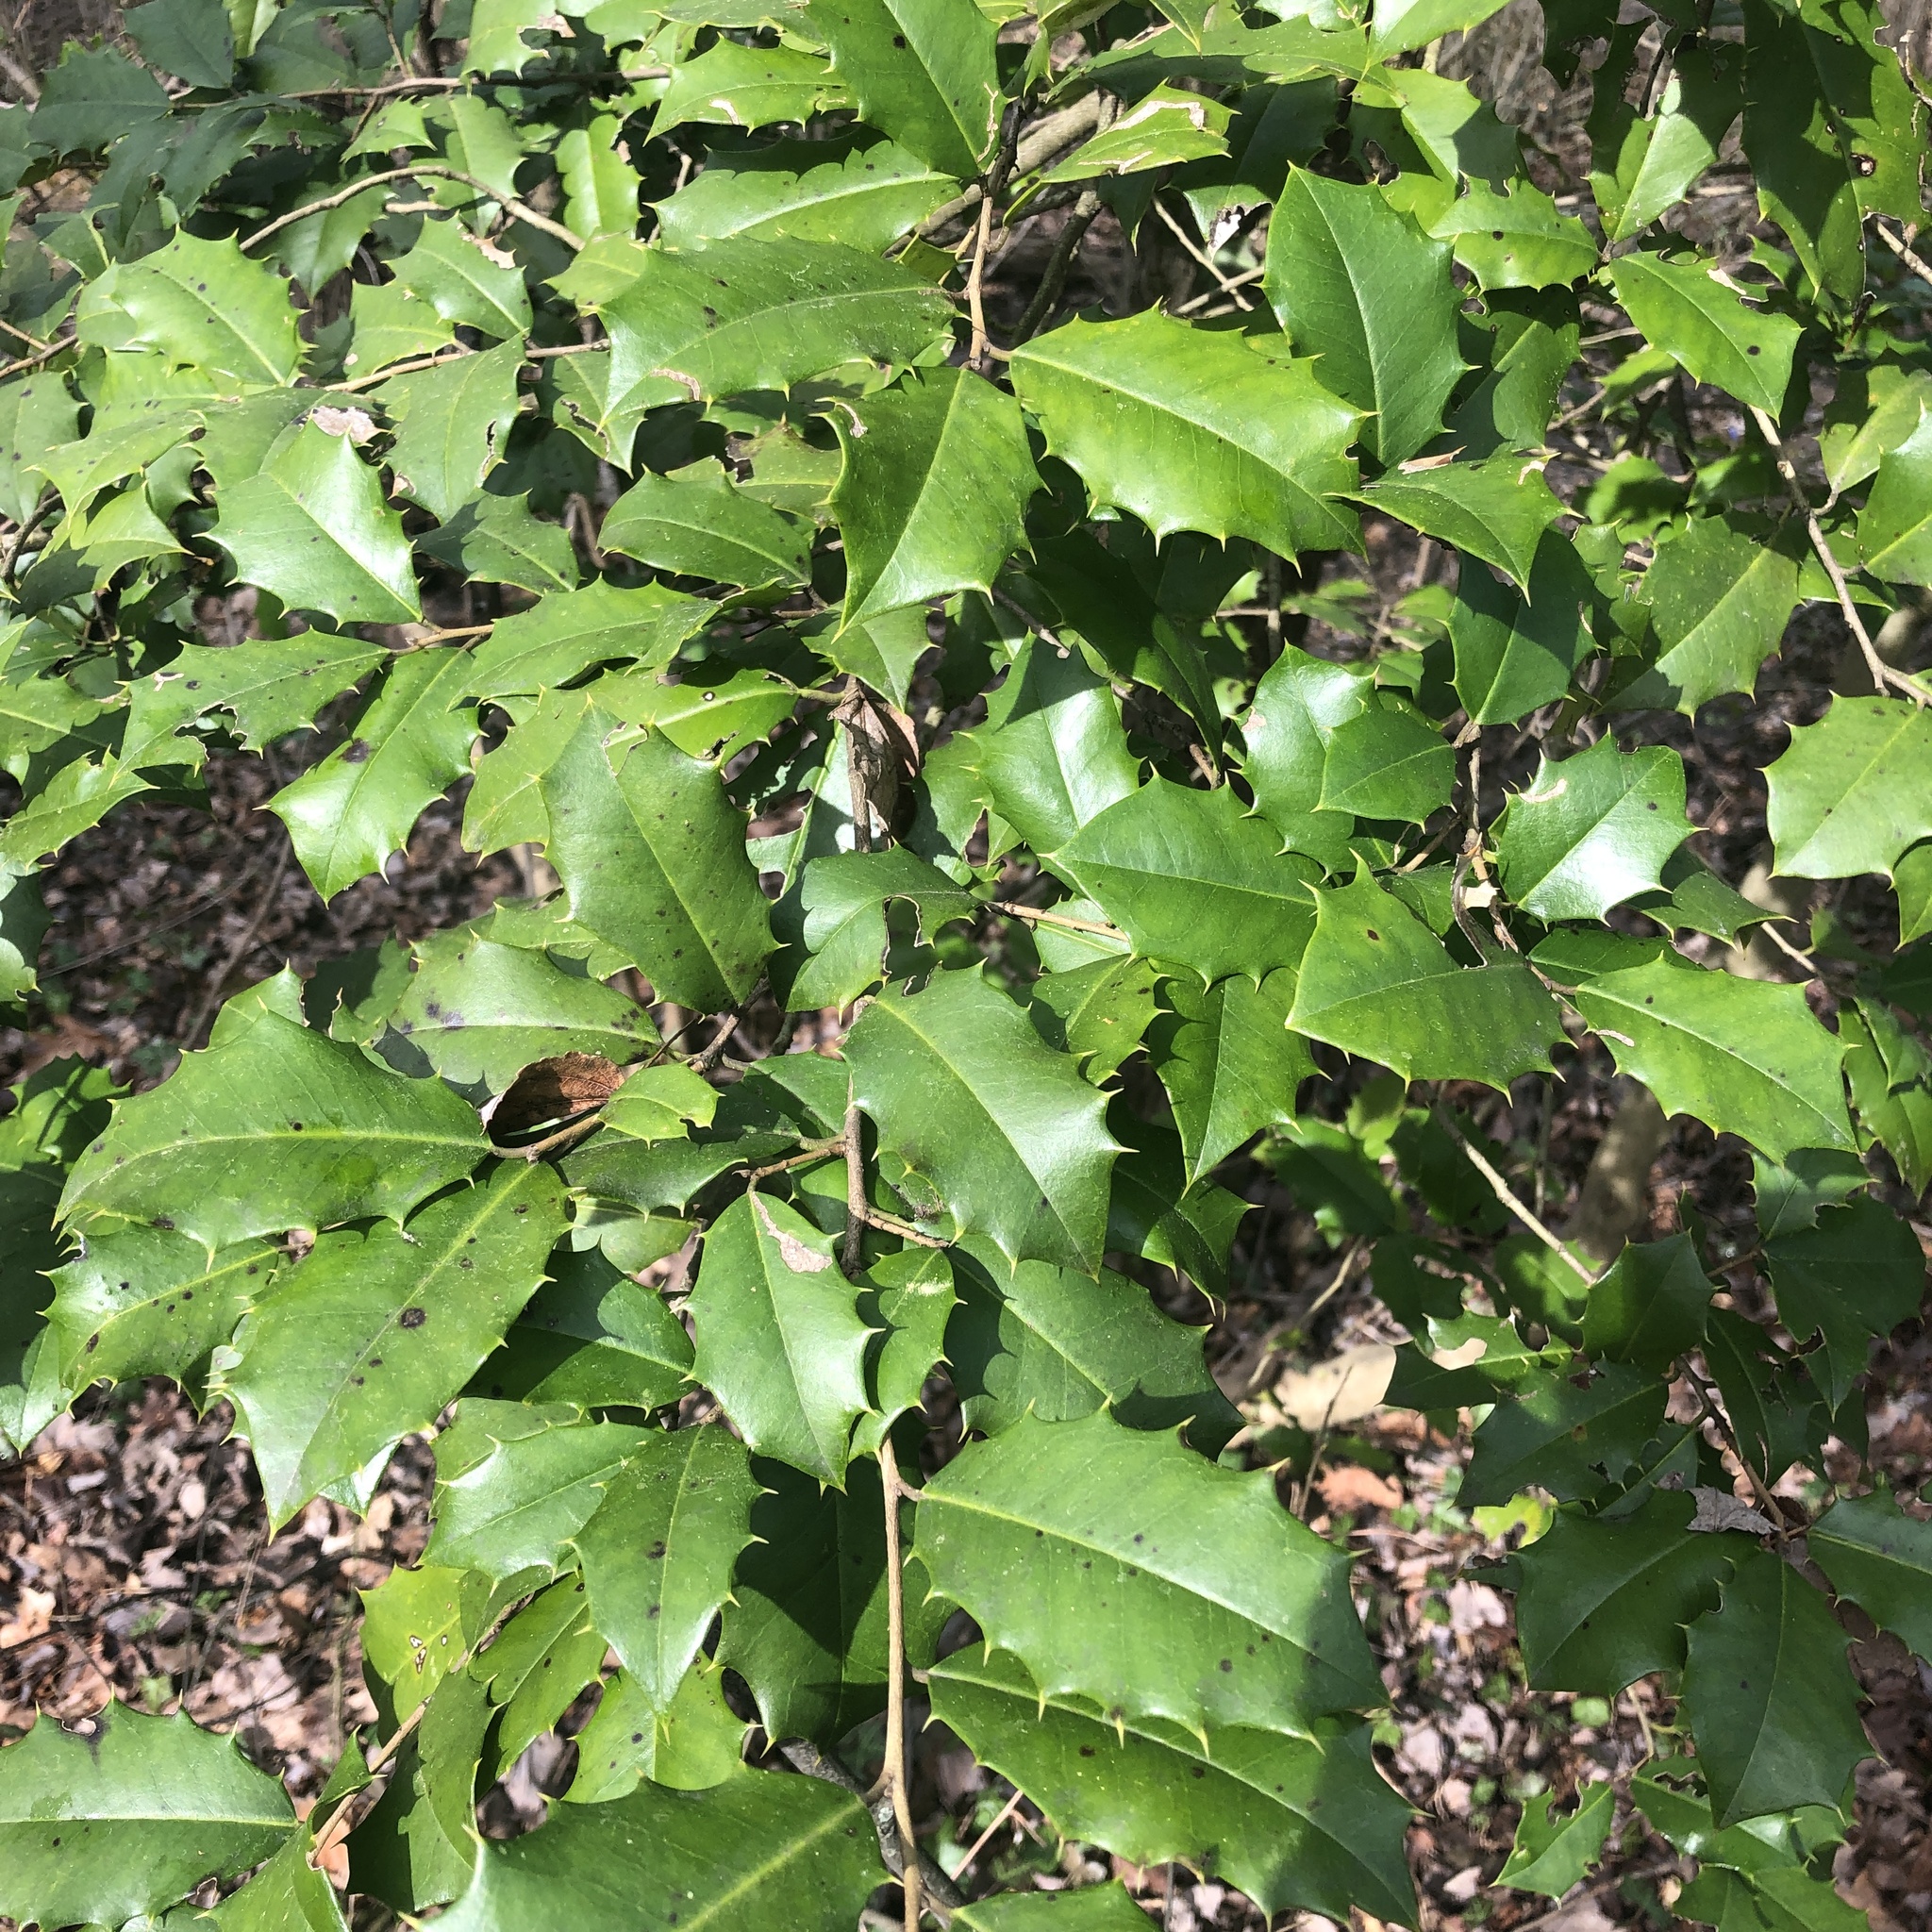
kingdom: Plantae
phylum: Tracheophyta
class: Magnoliopsida
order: Aquifoliales
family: Aquifoliaceae
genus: Ilex
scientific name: Ilex opaca
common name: American holly
